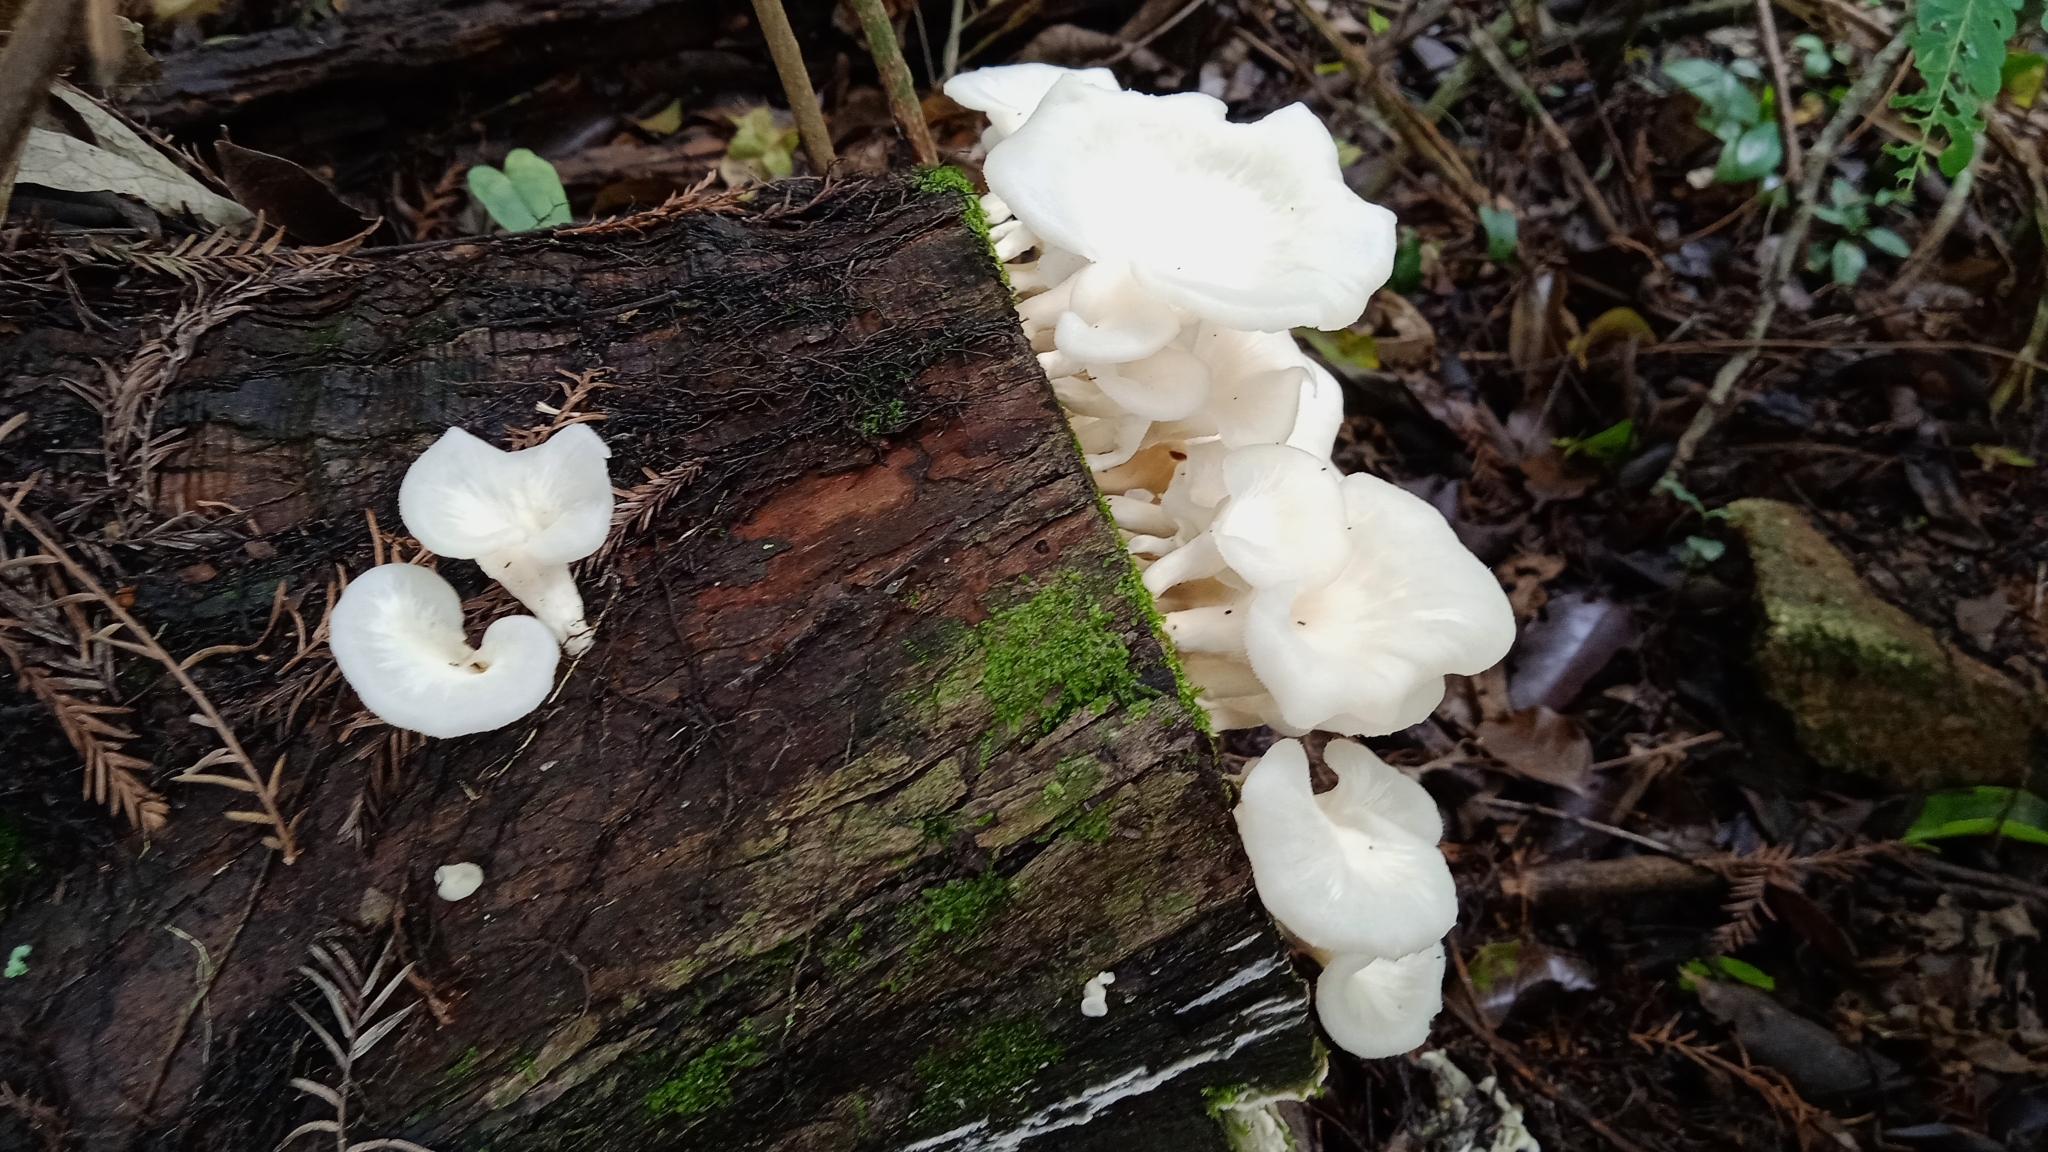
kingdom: Fungi
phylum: Basidiomycota
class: Agaricomycetes
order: Polyporales
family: Polyporaceae
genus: Favolus
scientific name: Favolus tenuiculus
